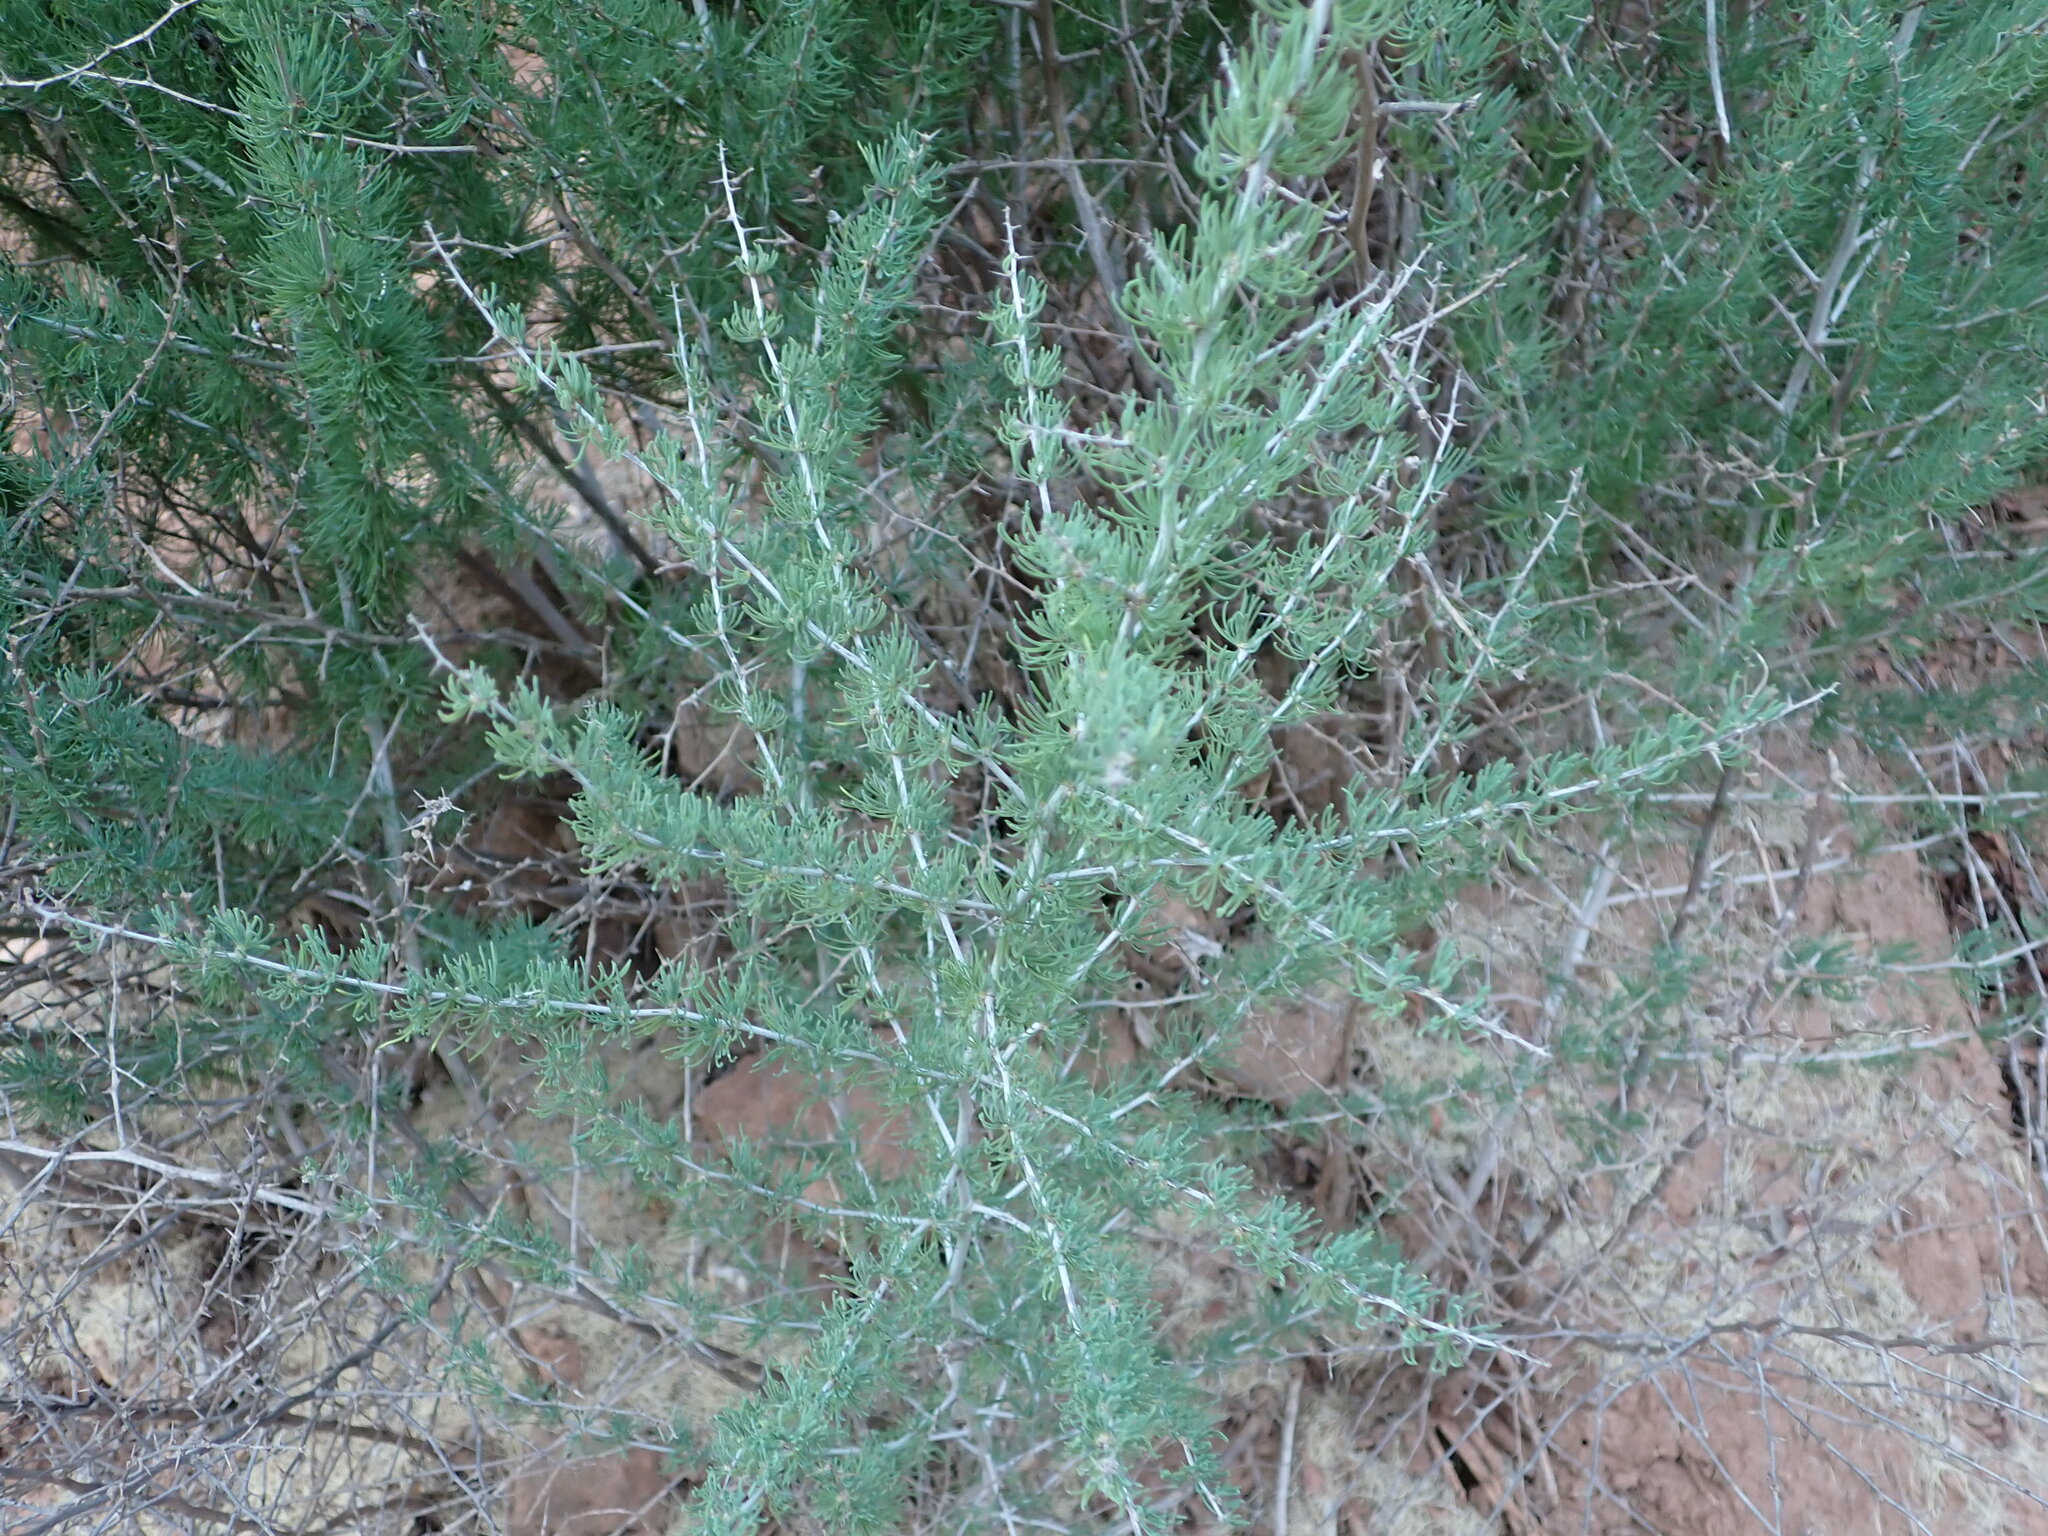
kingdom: Plantae
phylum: Tracheophyta
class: Liliopsida
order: Asparagales
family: Asparagaceae
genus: Asparagus
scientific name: Asparagus albus
